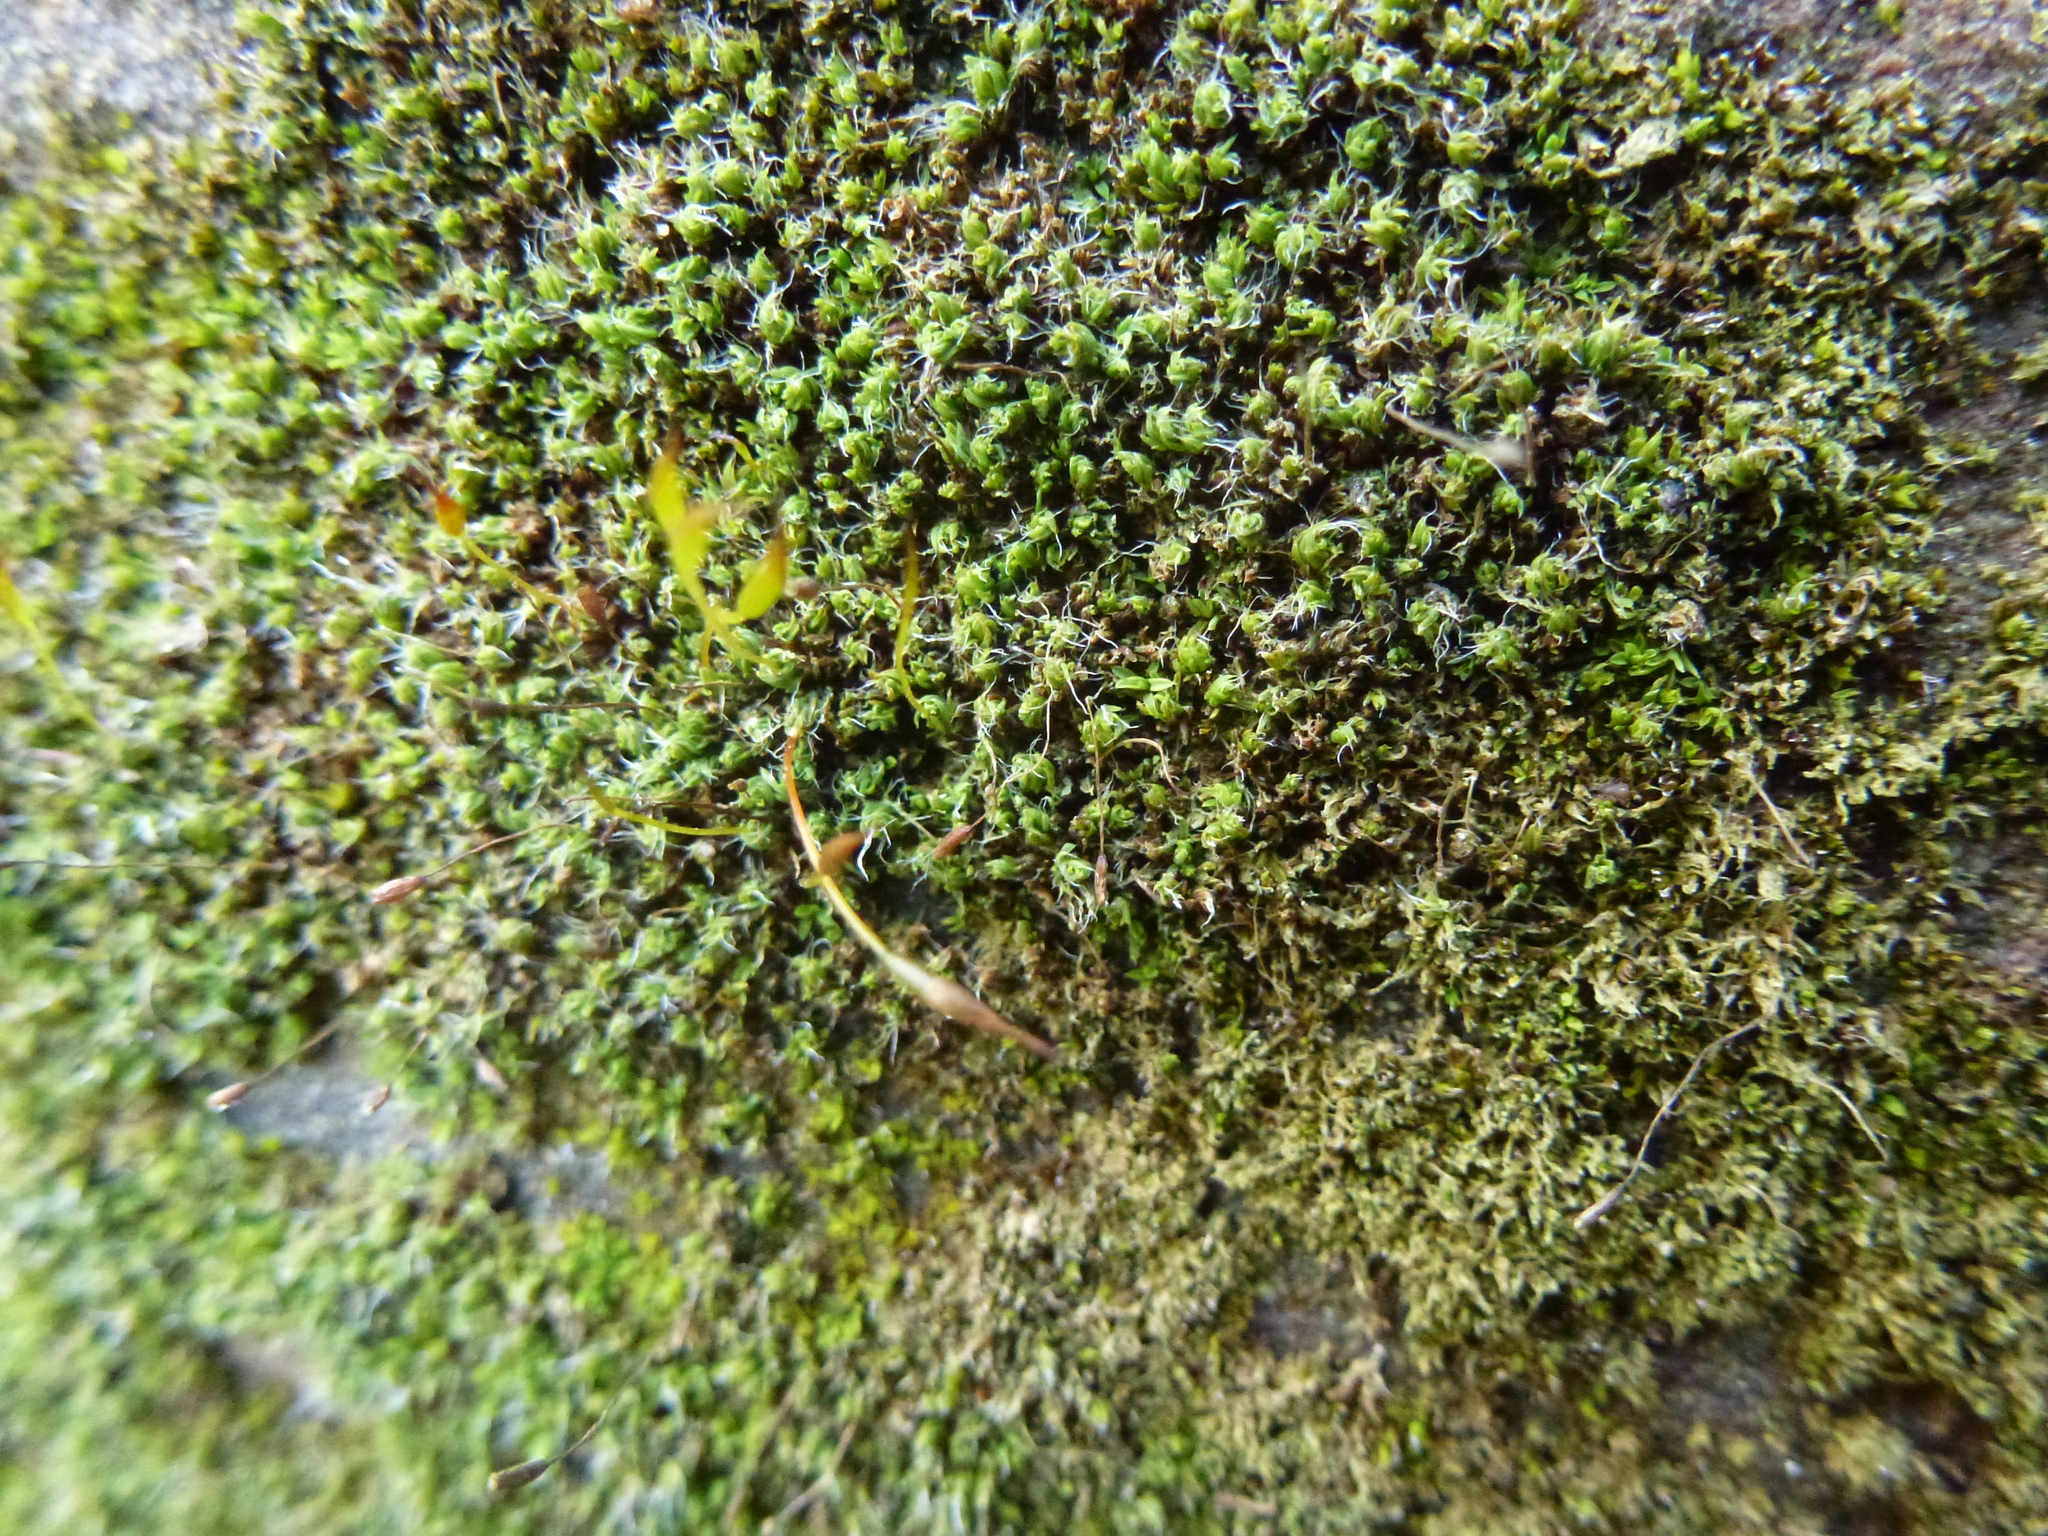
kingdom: Plantae
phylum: Bryophyta
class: Bryopsida
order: Pottiales
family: Pottiaceae
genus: Tortula
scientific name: Tortula muralis
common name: Wall screw-moss
